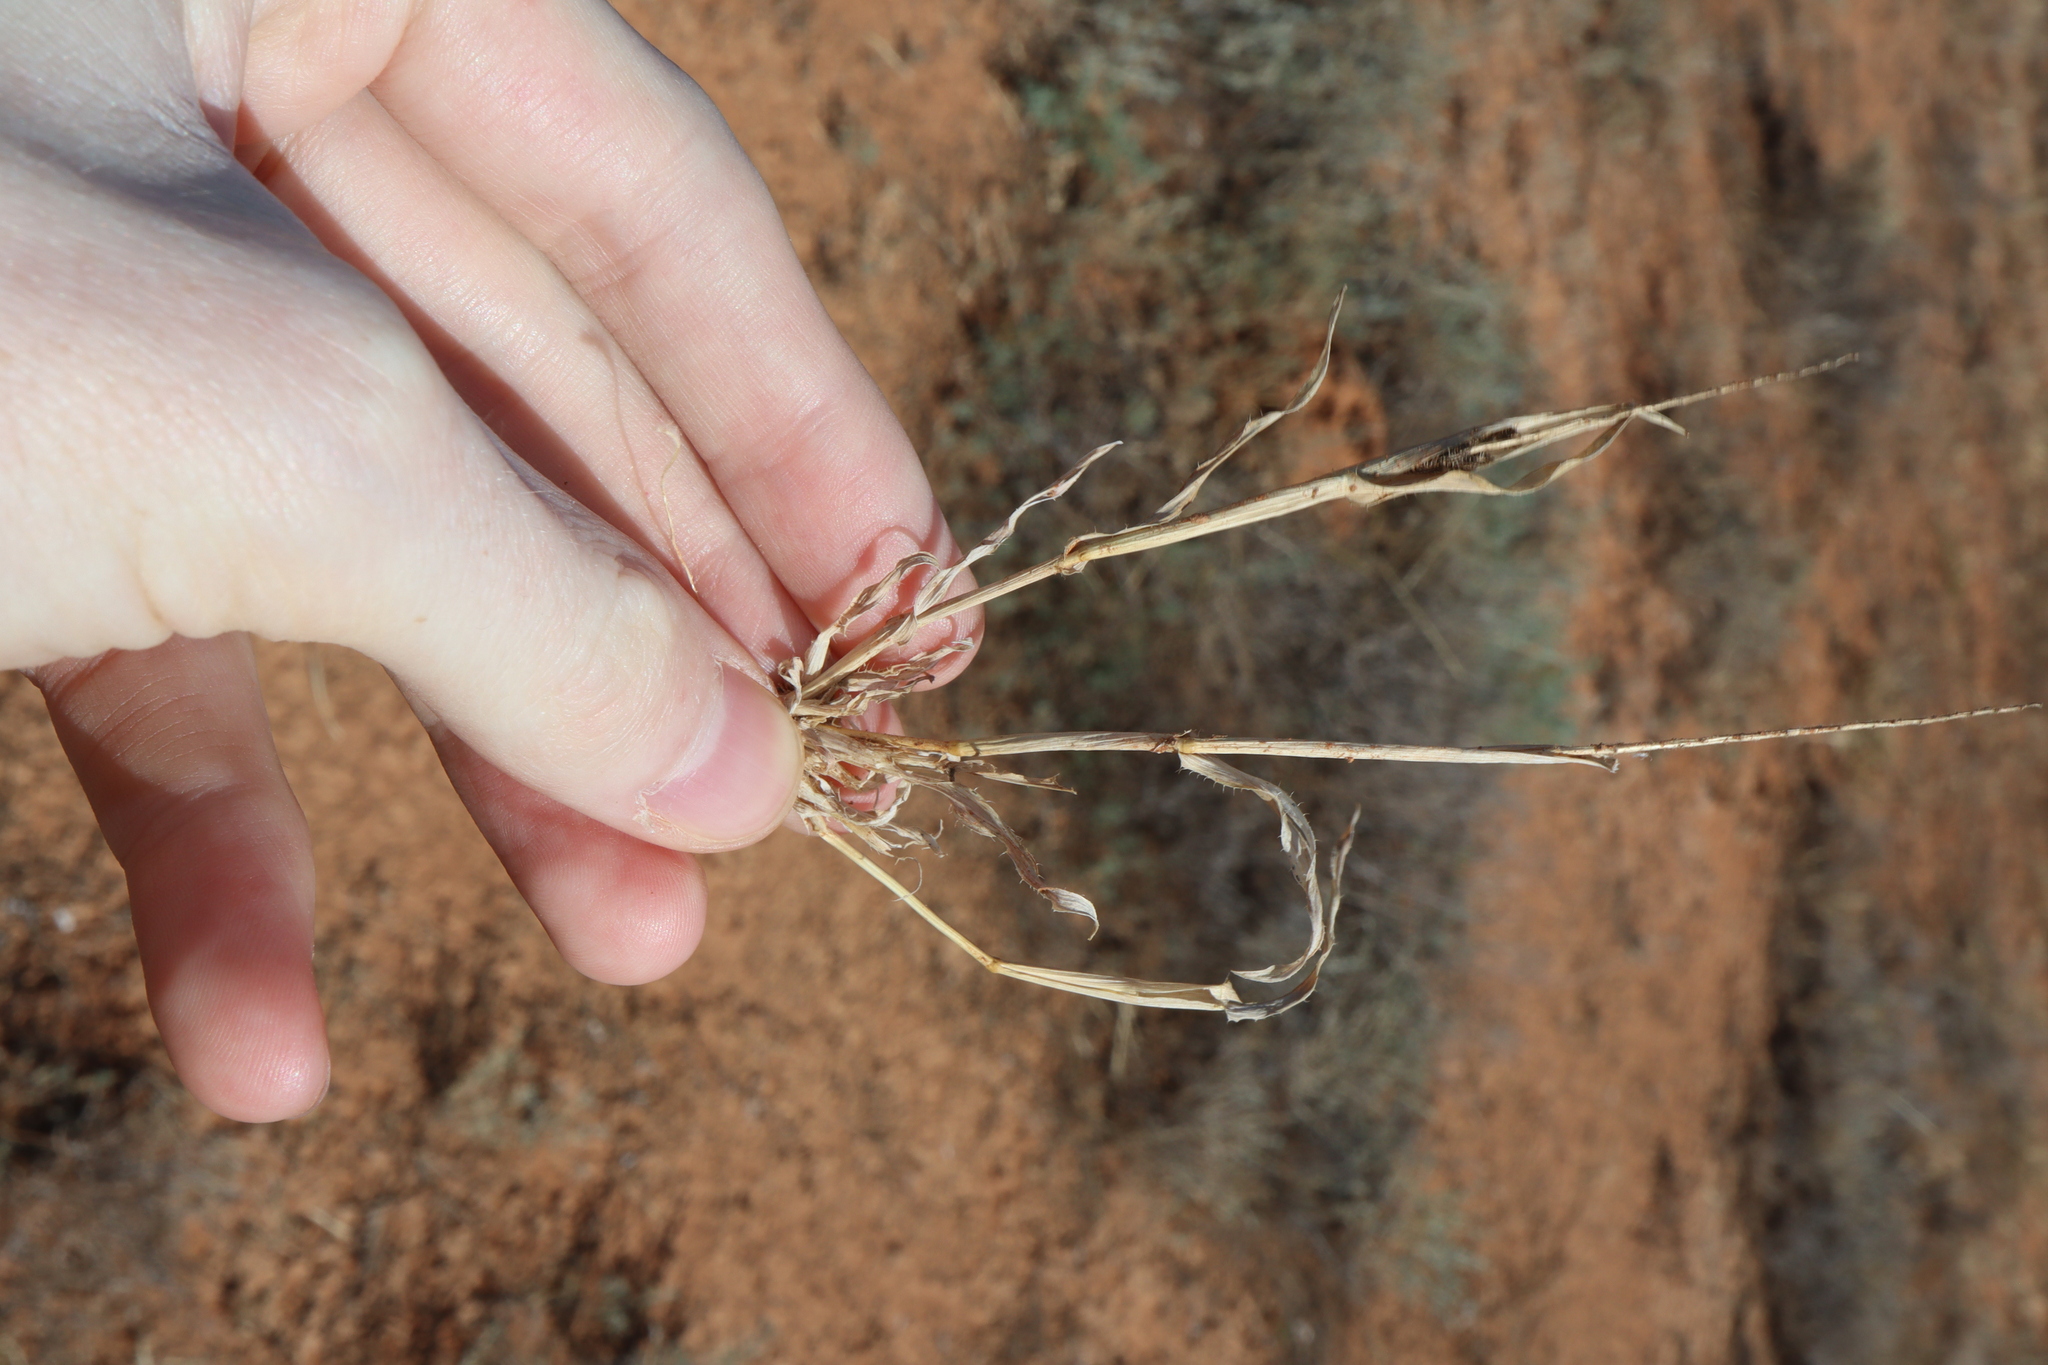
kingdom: Plantae
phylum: Tracheophyta
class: Liliopsida
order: Poales
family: Poaceae
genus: Tragus
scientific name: Tragus australianus
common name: Australian bur-grass
